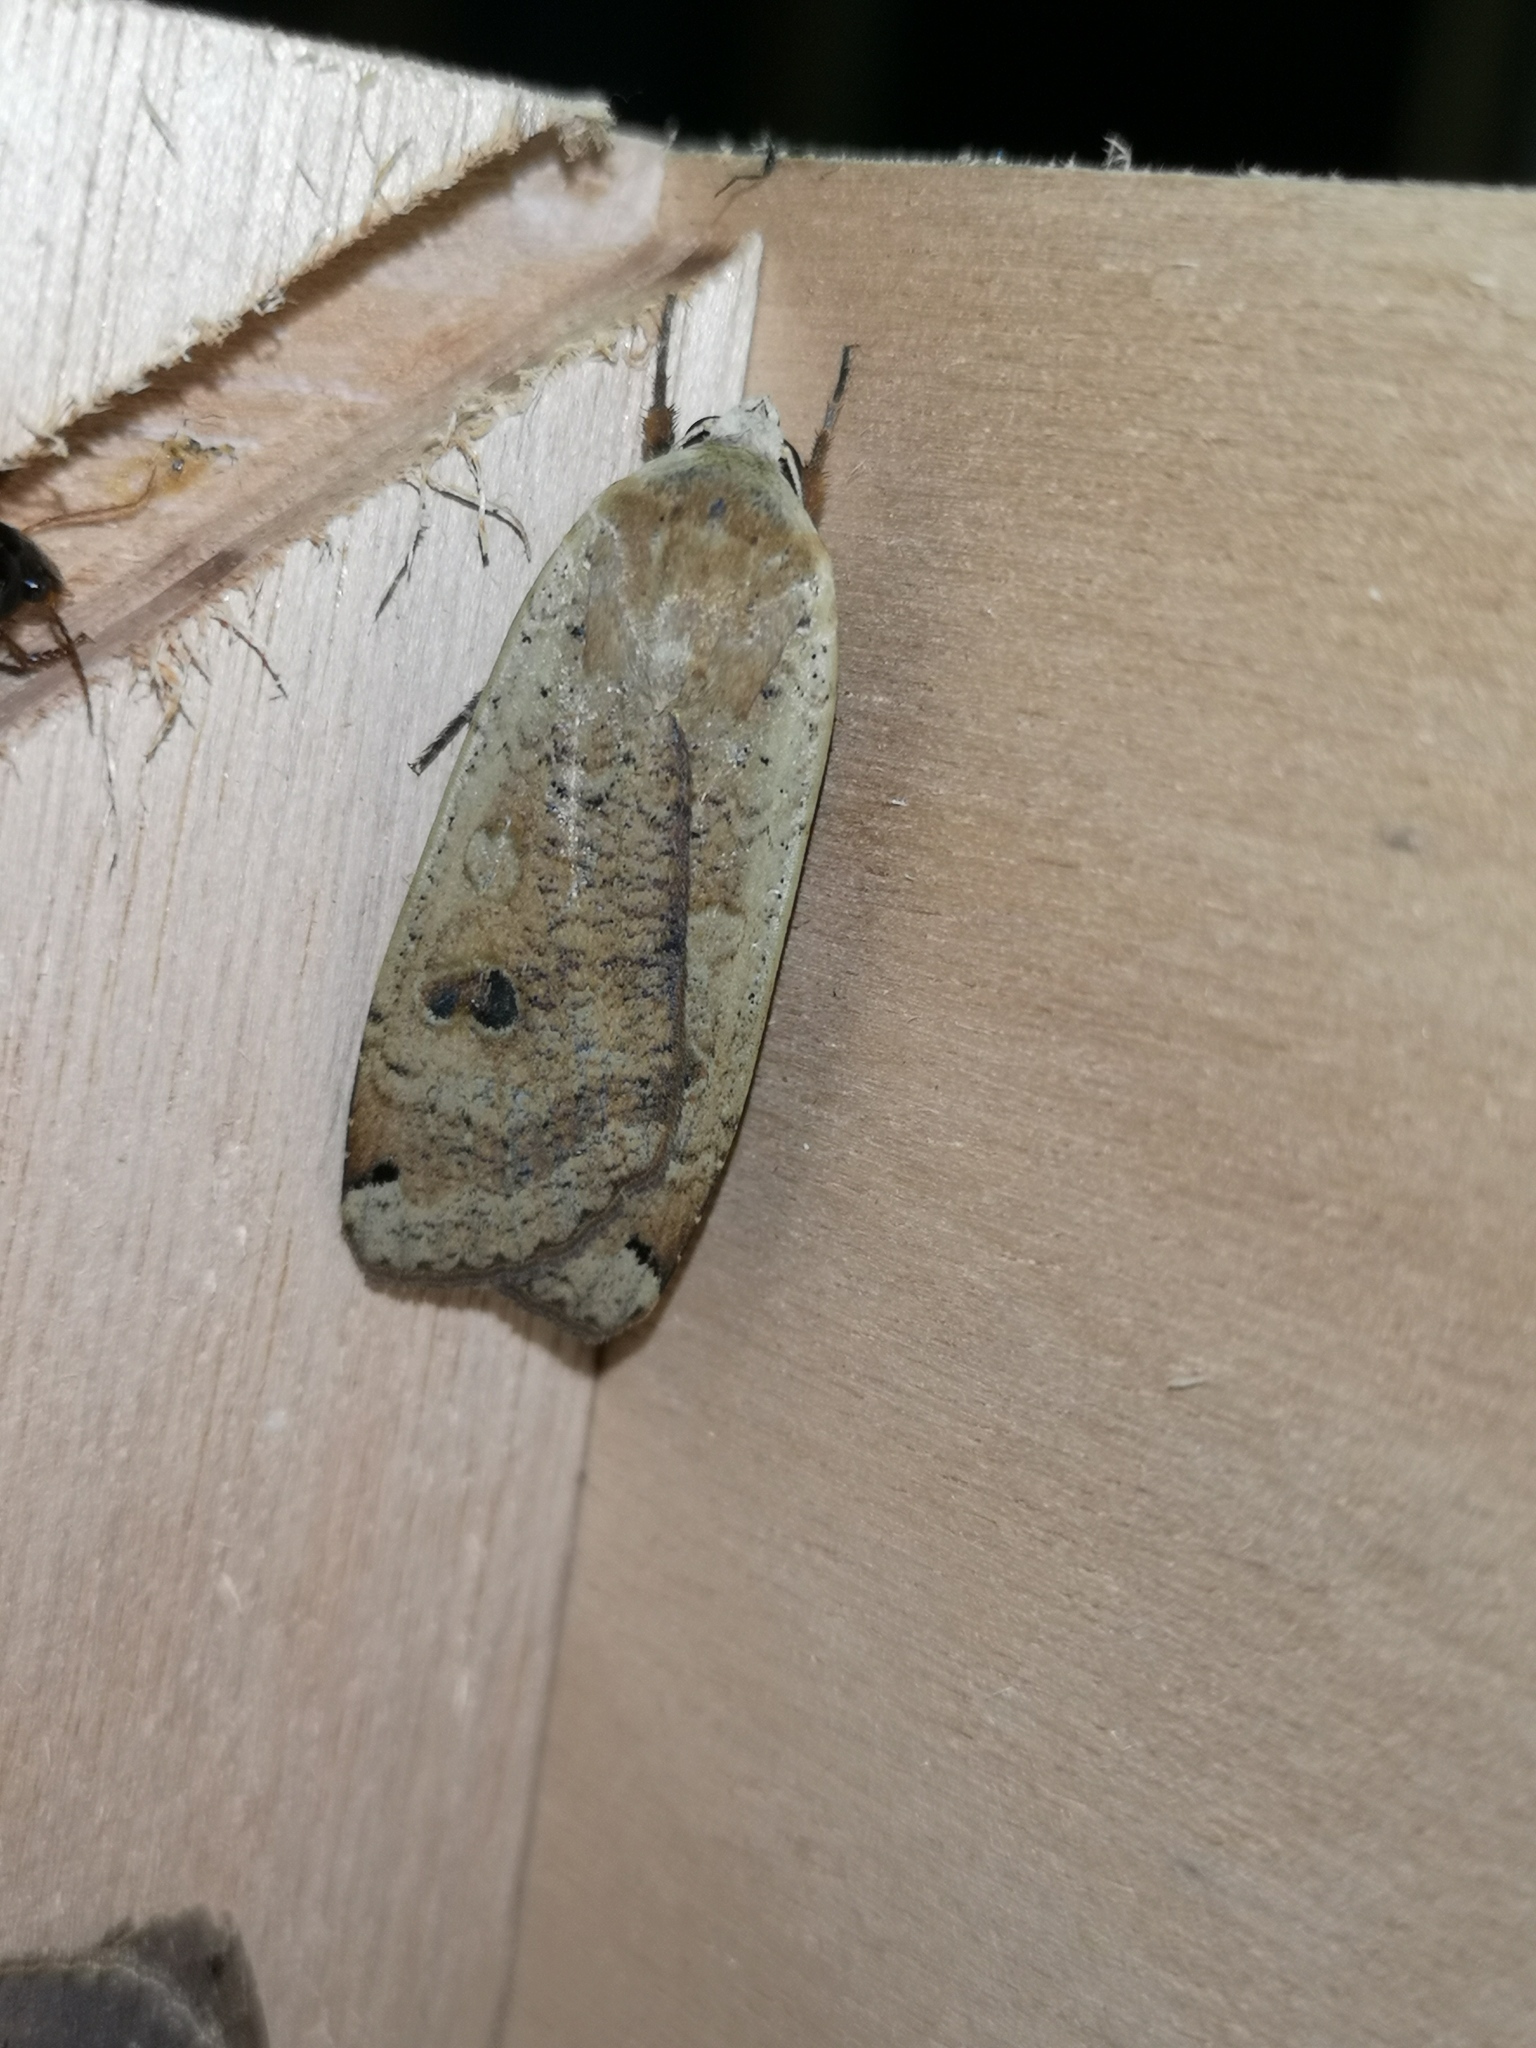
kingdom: Animalia
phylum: Arthropoda
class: Insecta
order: Lepidoptera
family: Noctuidae
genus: Noctua
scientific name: Noctua pronuba
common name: Large yellow underwing
